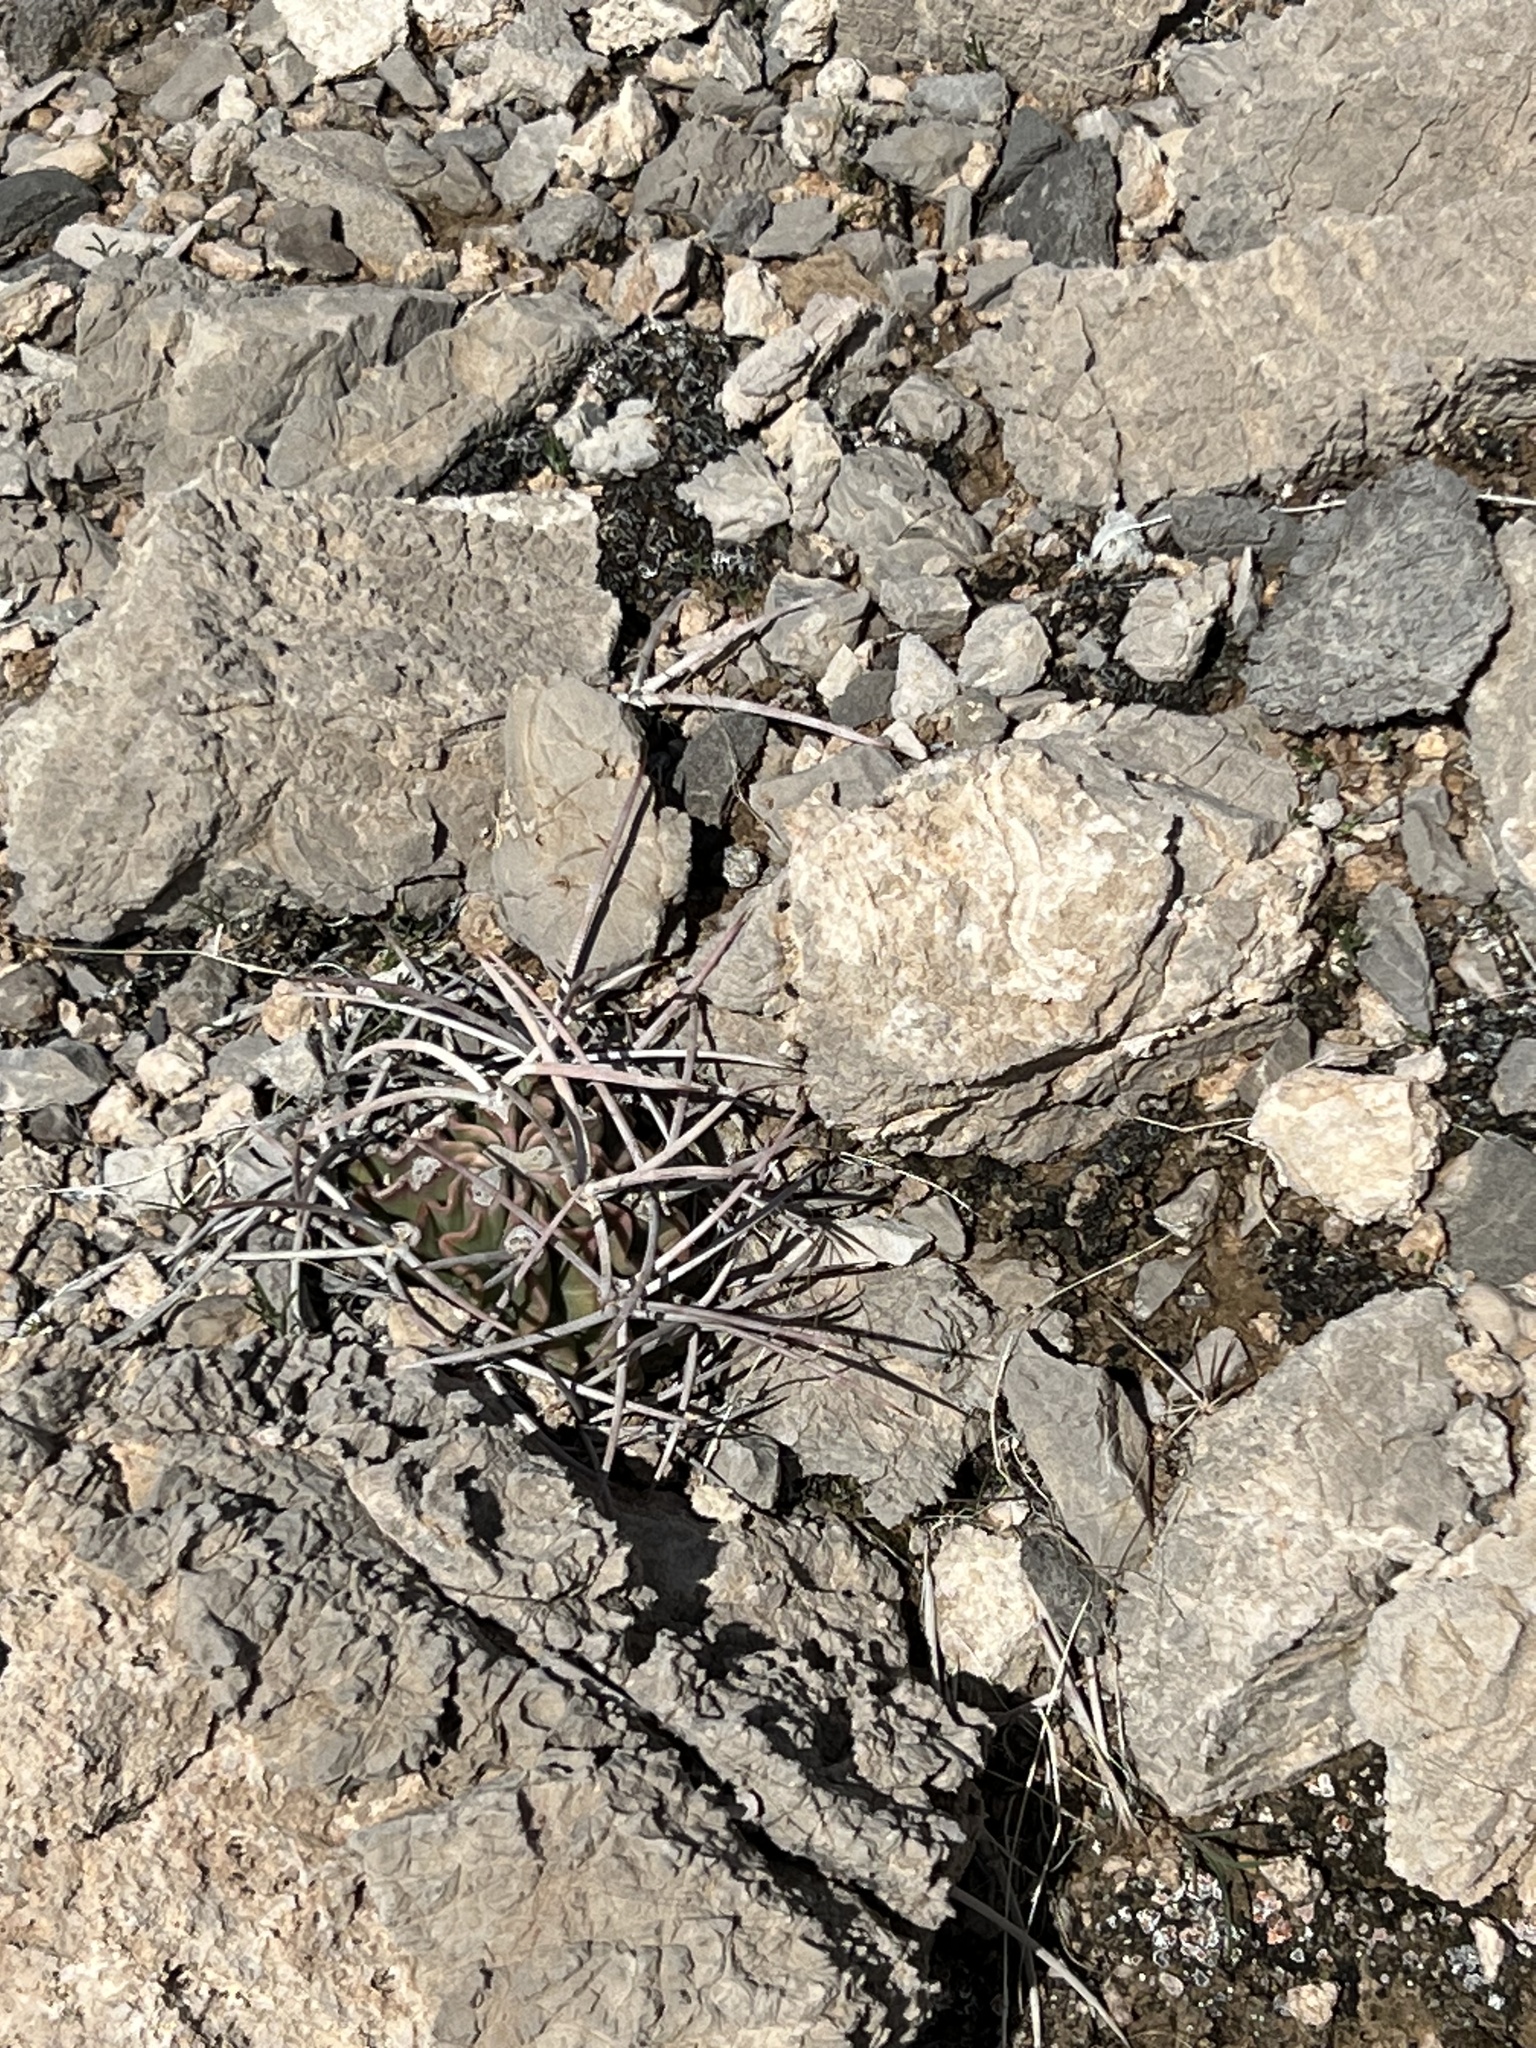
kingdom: Plantae
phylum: Tracheophyta
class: Magnoliopsida
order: Caryophyllales
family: Cactaceae
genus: Echinocactus
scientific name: Echinocactus polycephalus
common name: Cottontop cactus
